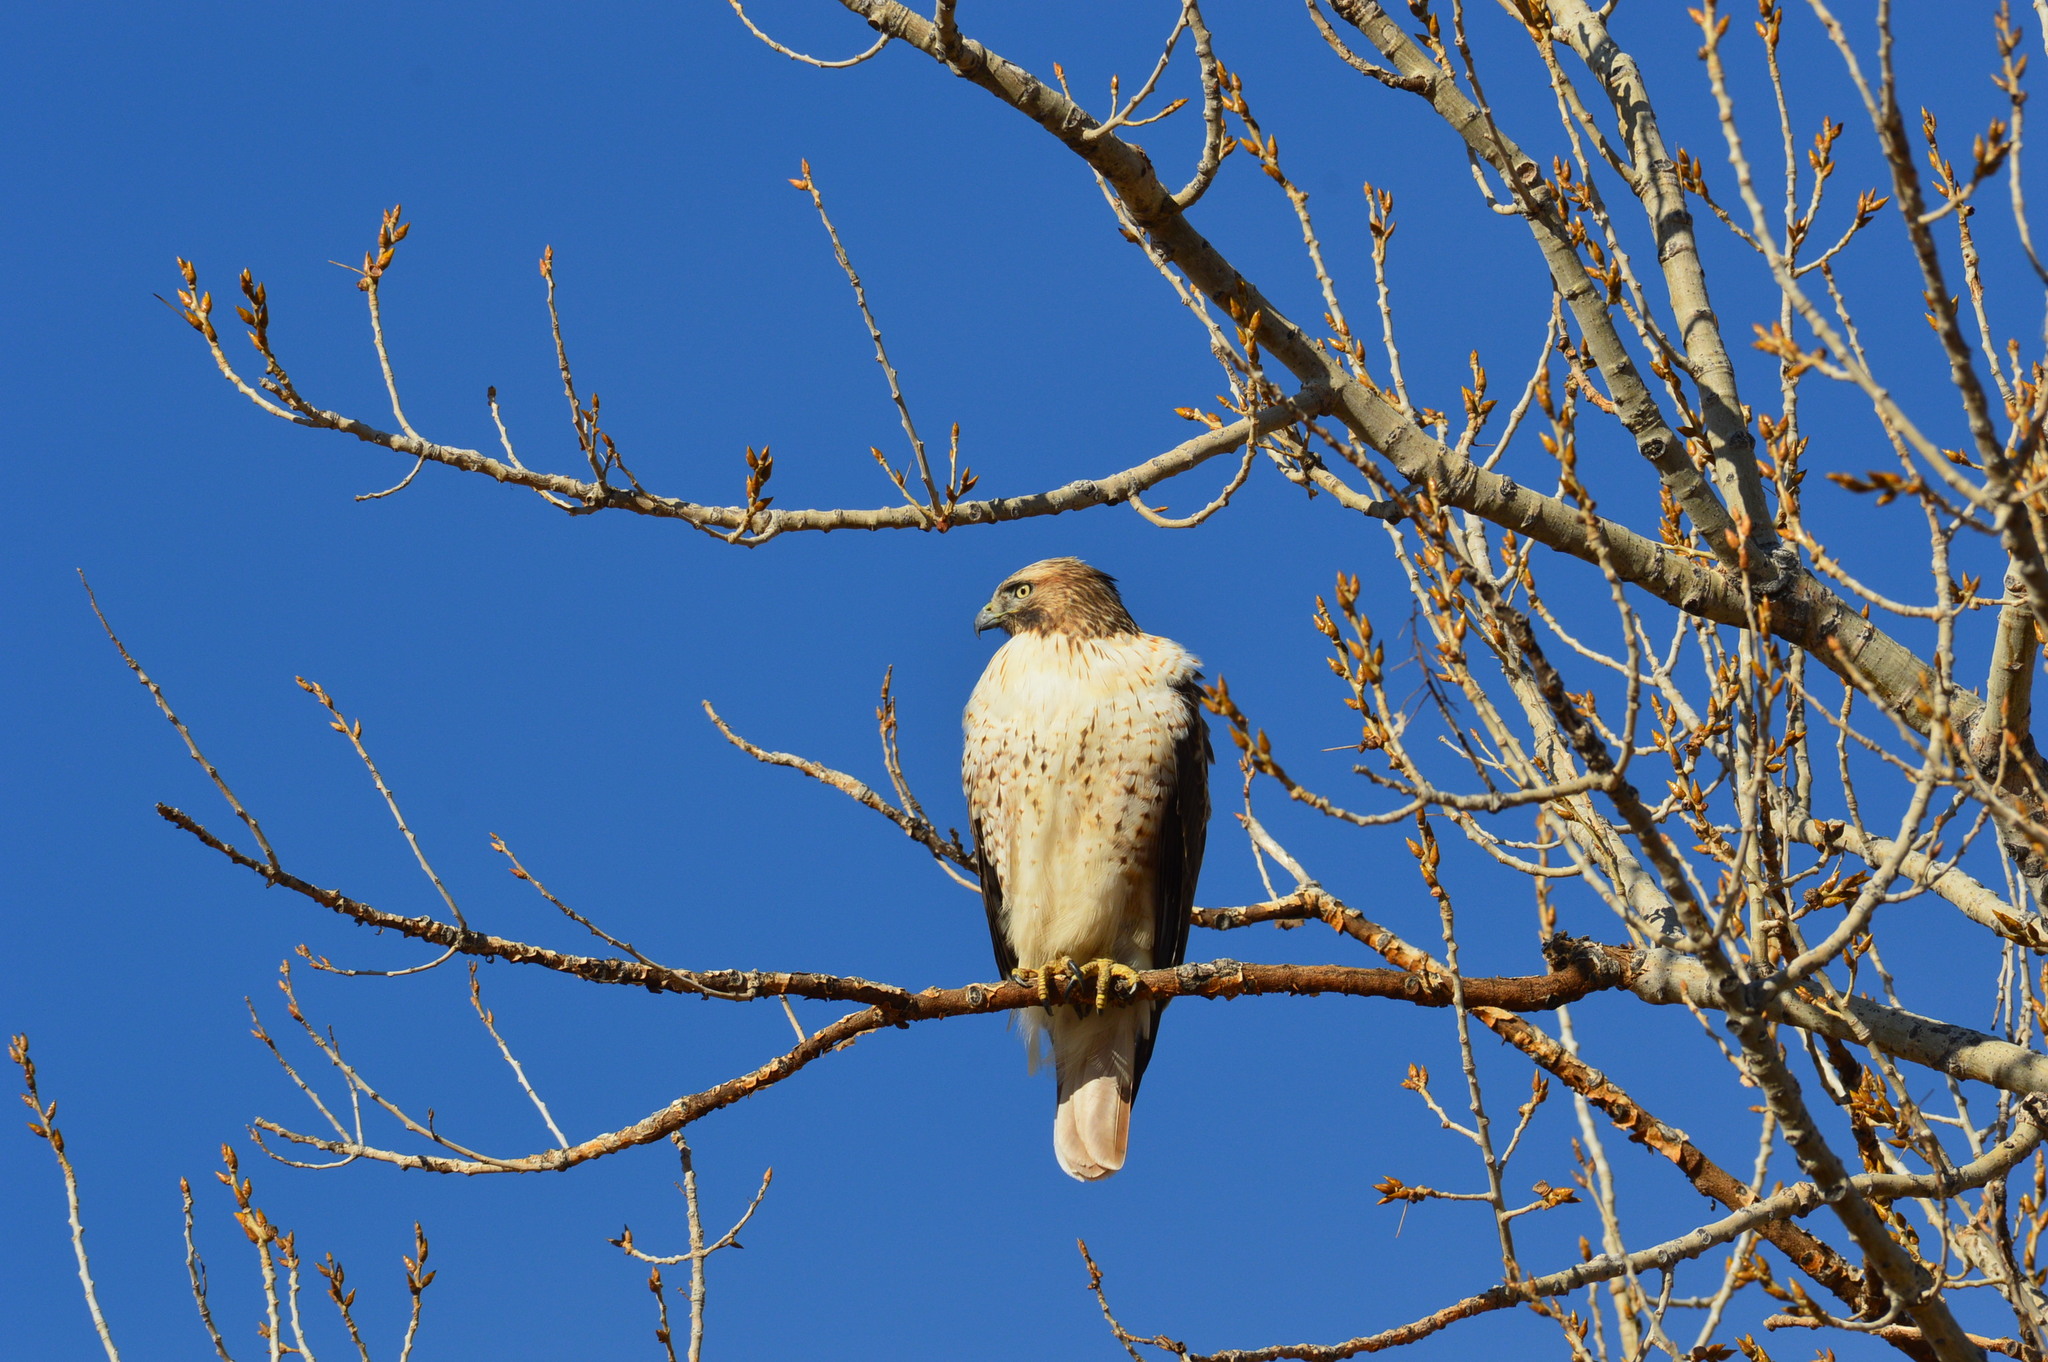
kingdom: Animalia
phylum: Chordata
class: Aves
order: Accipitriformes
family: Accipitridae
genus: Buteo
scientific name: Buteo jamaicensis
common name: Red-tailed hawk
